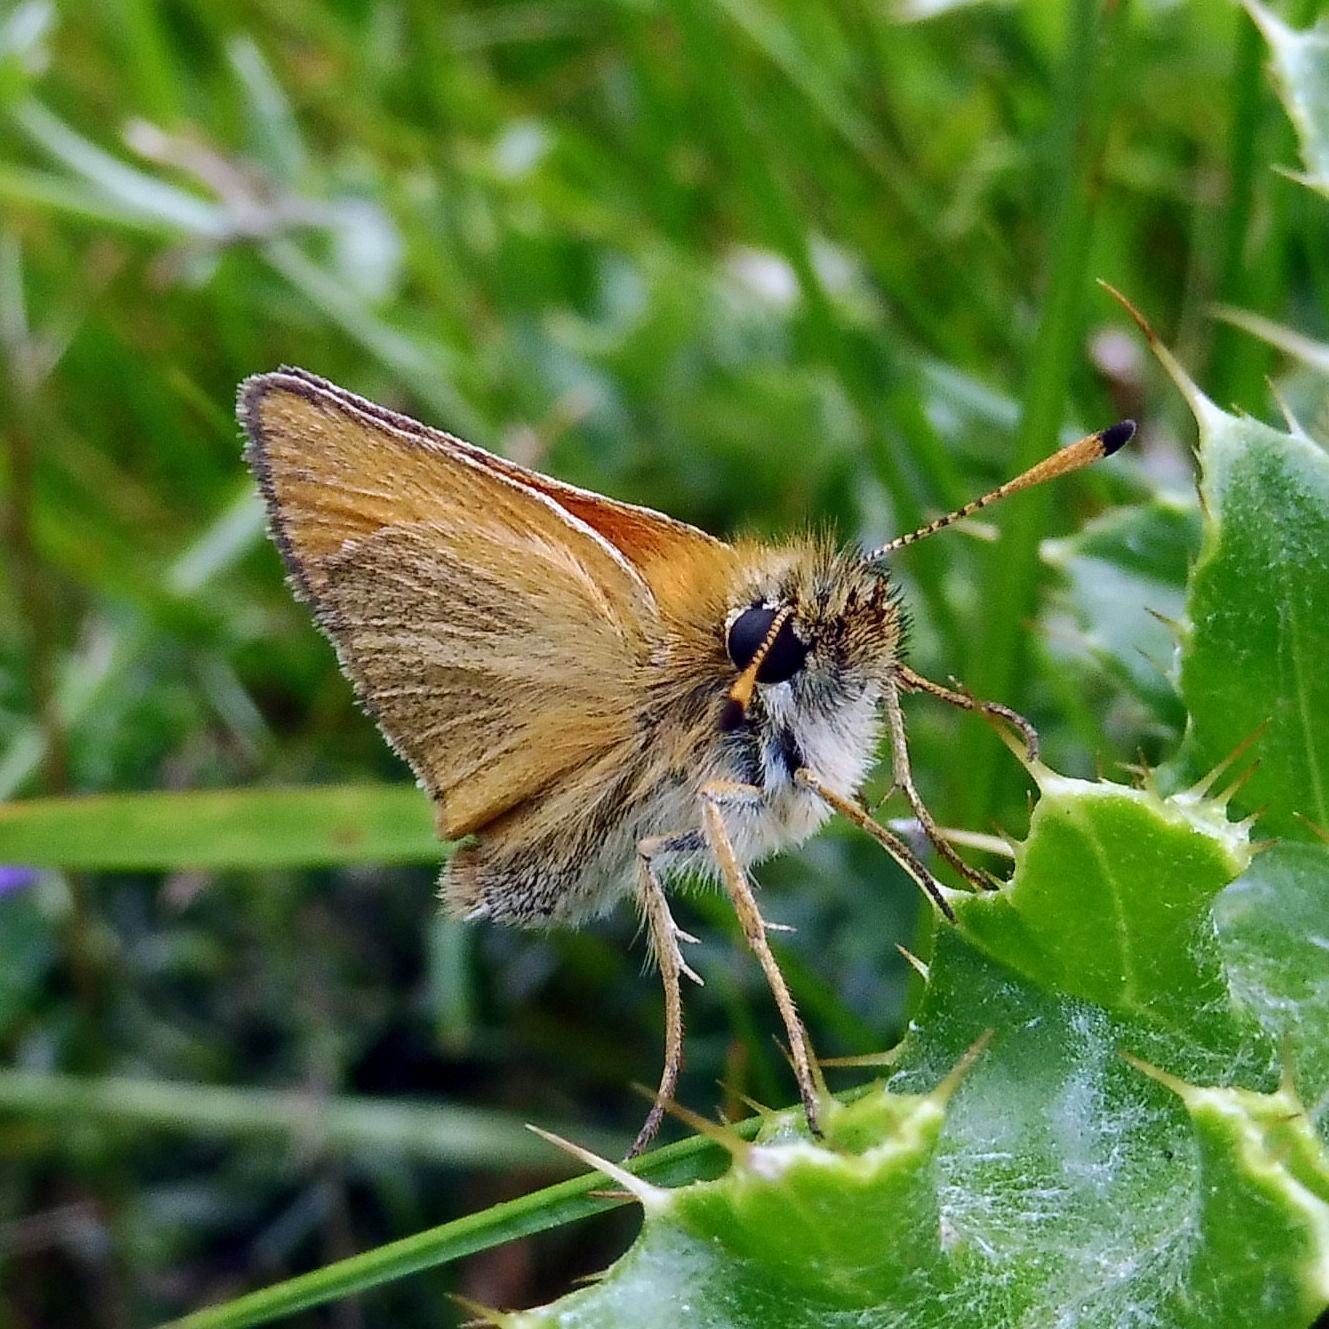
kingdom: Animalia
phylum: Arthropoda
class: Insecta
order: Lepidoptera
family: Hesperiidae
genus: Thymelicus
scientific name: Thymelicus lineola
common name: Essex skipper
